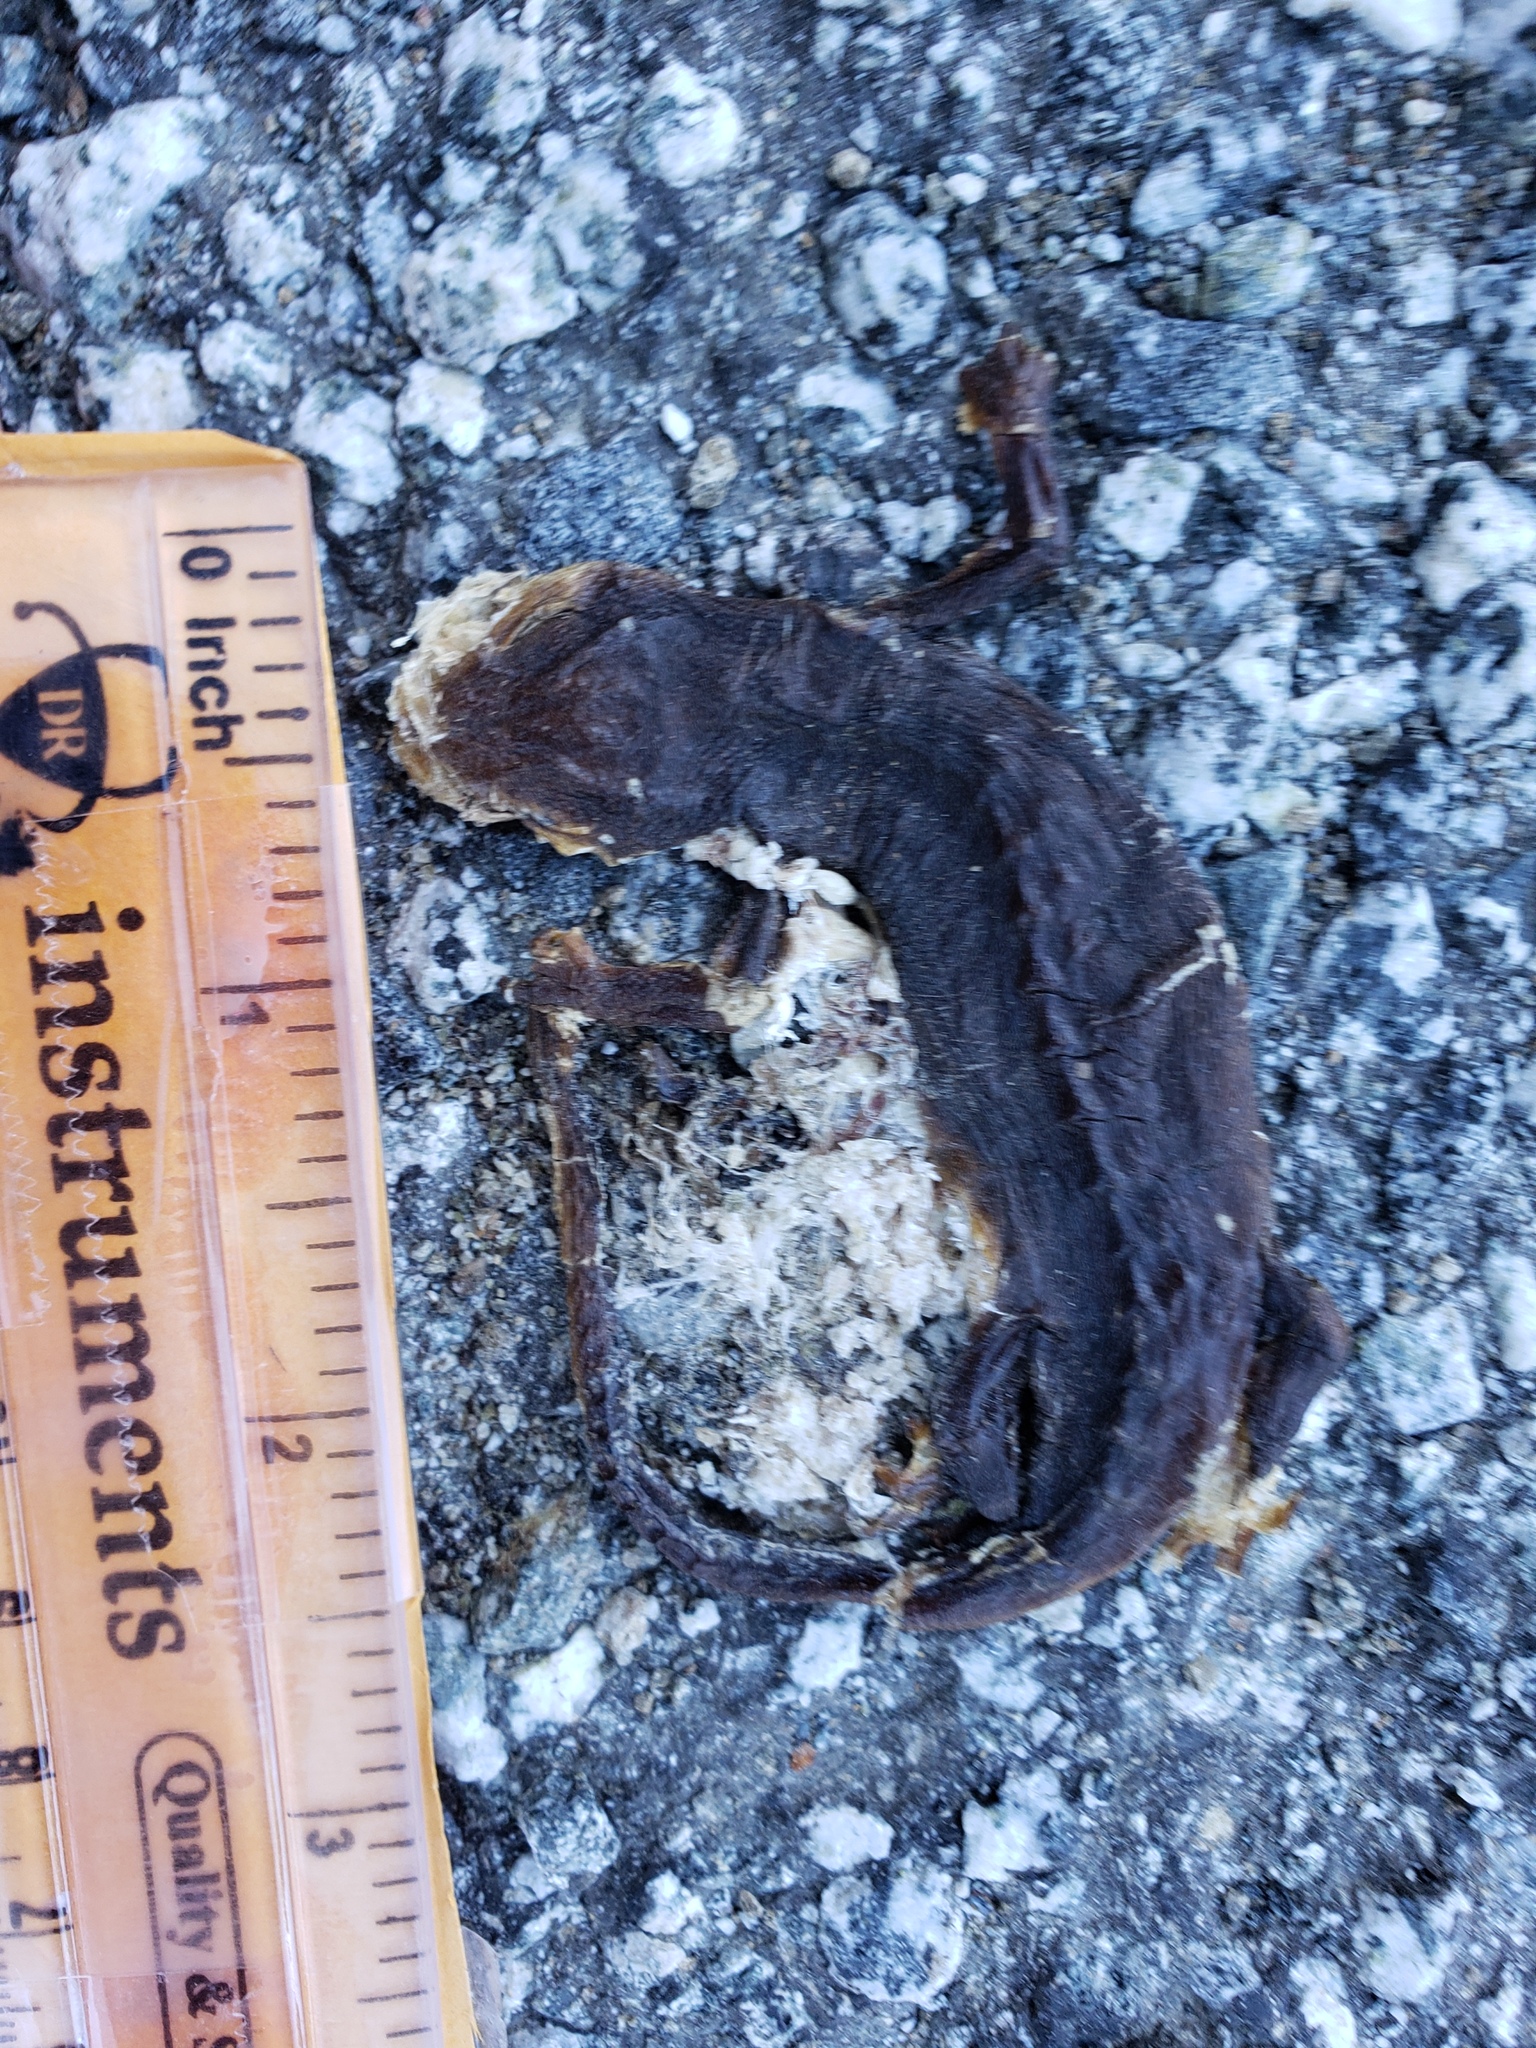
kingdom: Animalia
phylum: Chordata
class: Amphibia
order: Caudata
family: Salamandridae
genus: Taricha
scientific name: Taricha
